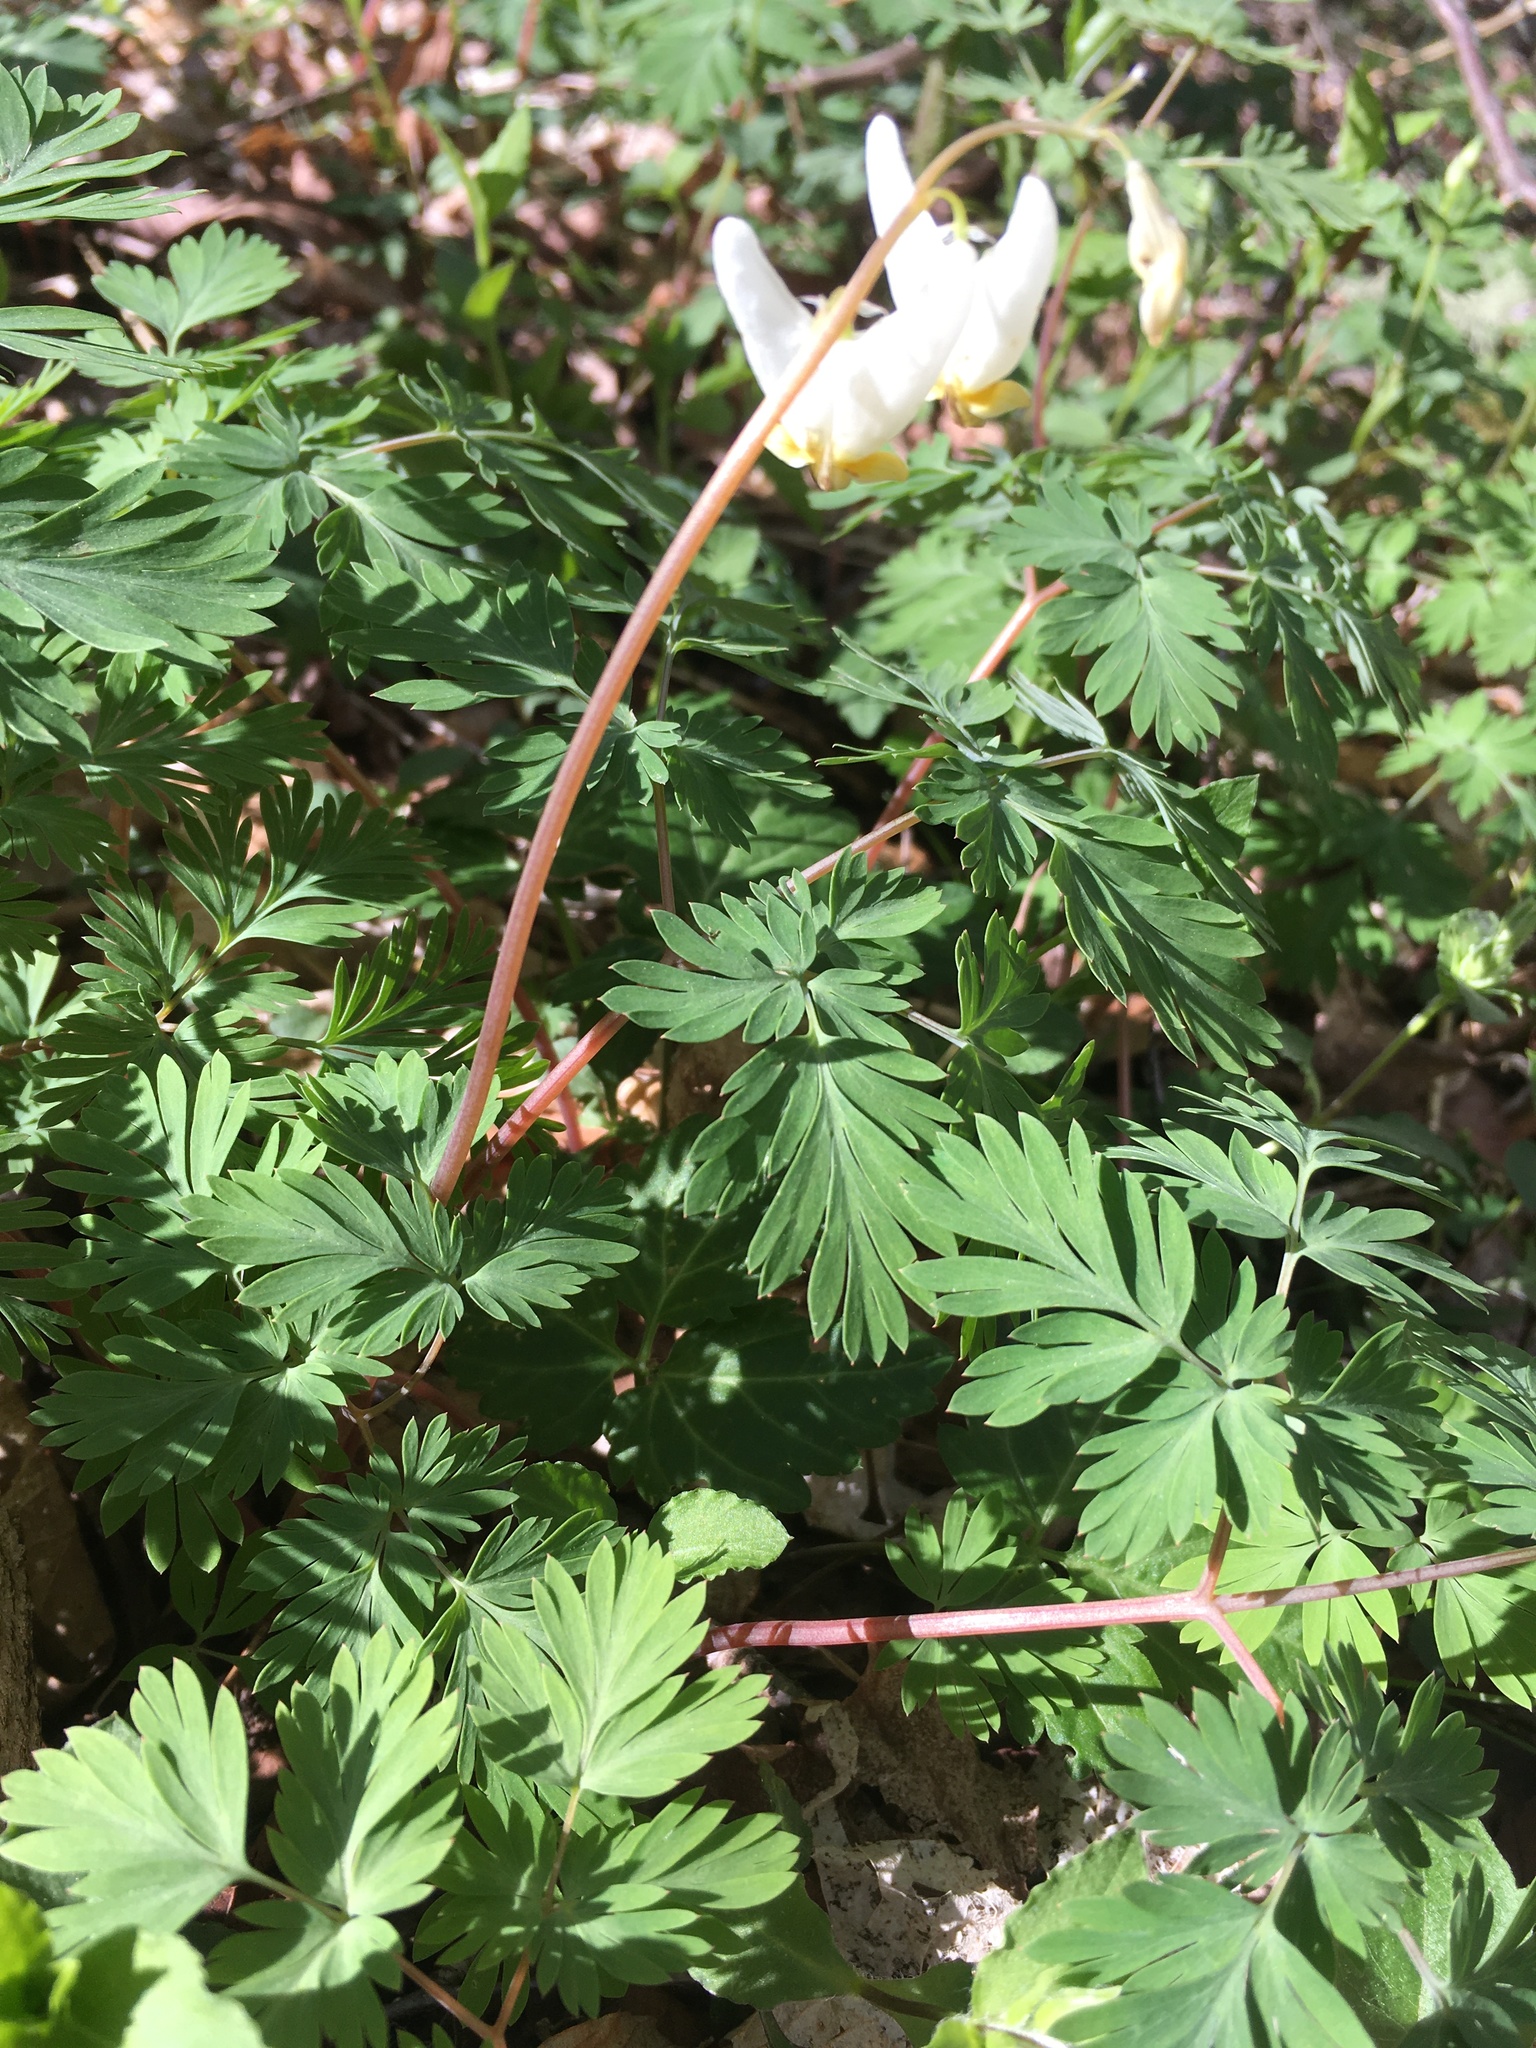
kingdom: Plantae
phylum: Tracheophyta
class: Magnoliopsida
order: Ranunculales
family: Papaveraceae
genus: Dicentra
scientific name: Dicentra cucullaria
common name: Dutchman's breeches
